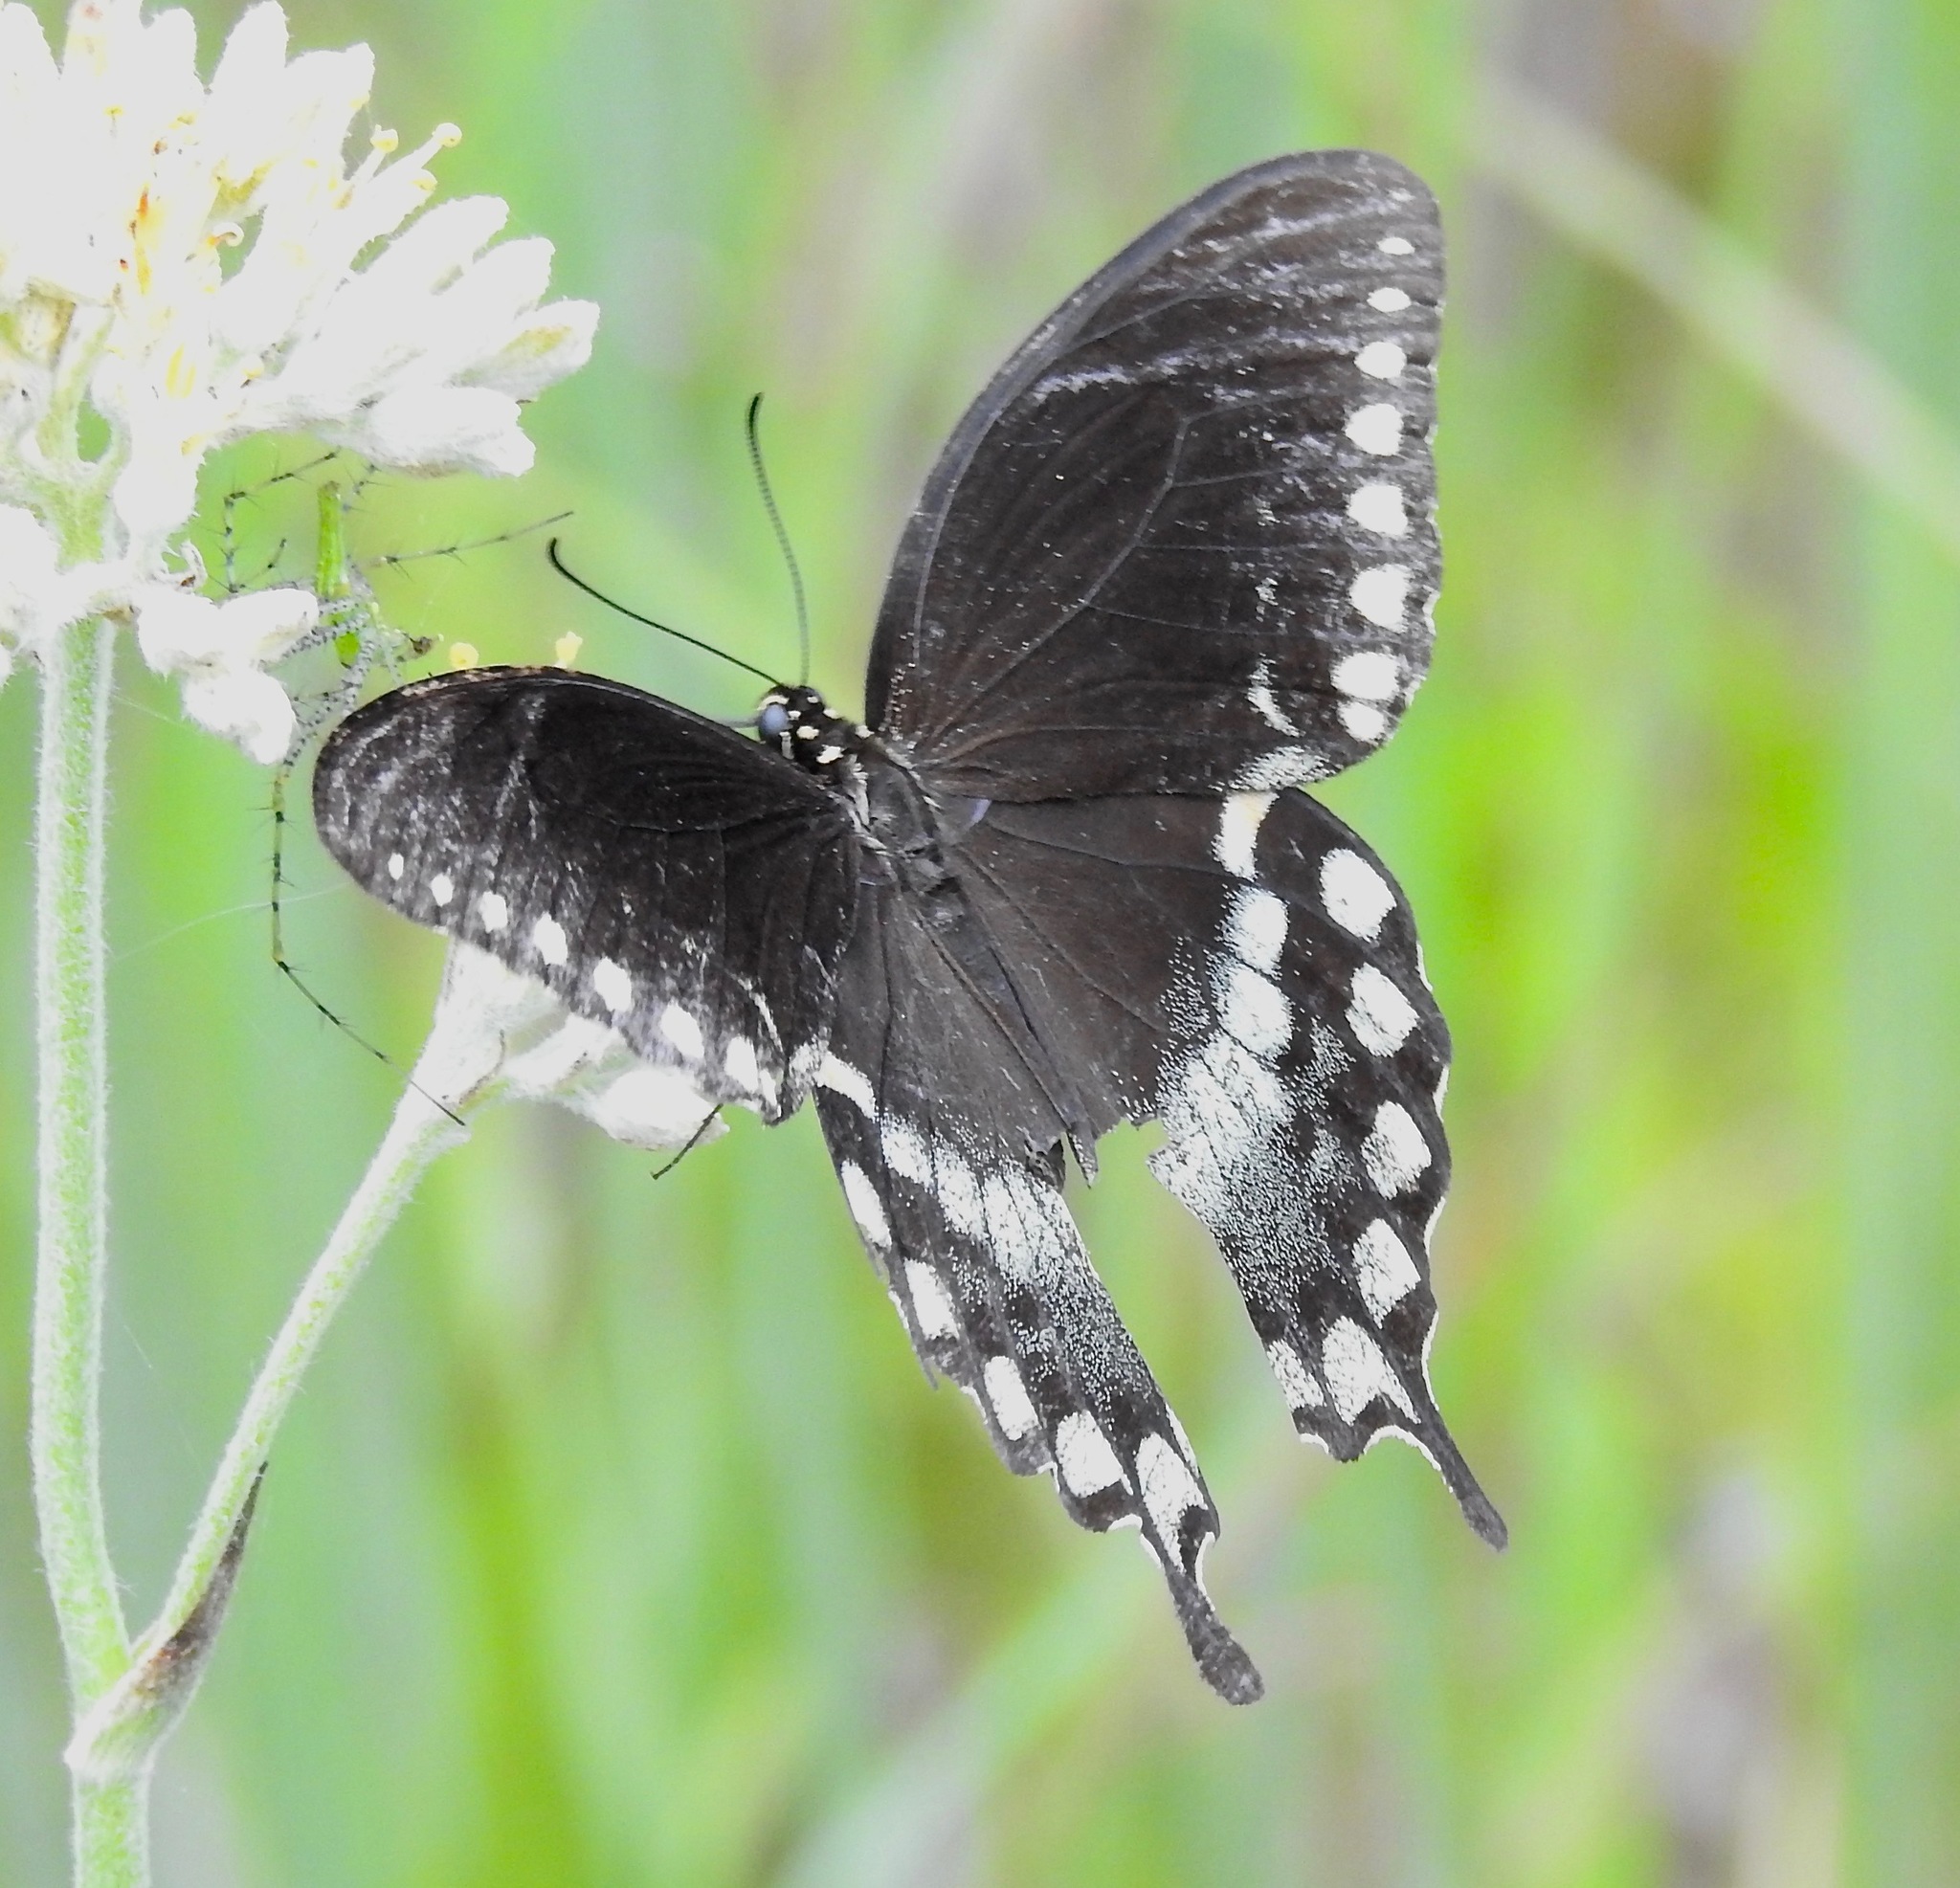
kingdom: Animalia
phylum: Arthropoda
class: Insecta
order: Lepidoptera
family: Papilionidae
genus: Papilio
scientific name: Papilio troilus
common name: Spicebush swallowtail
